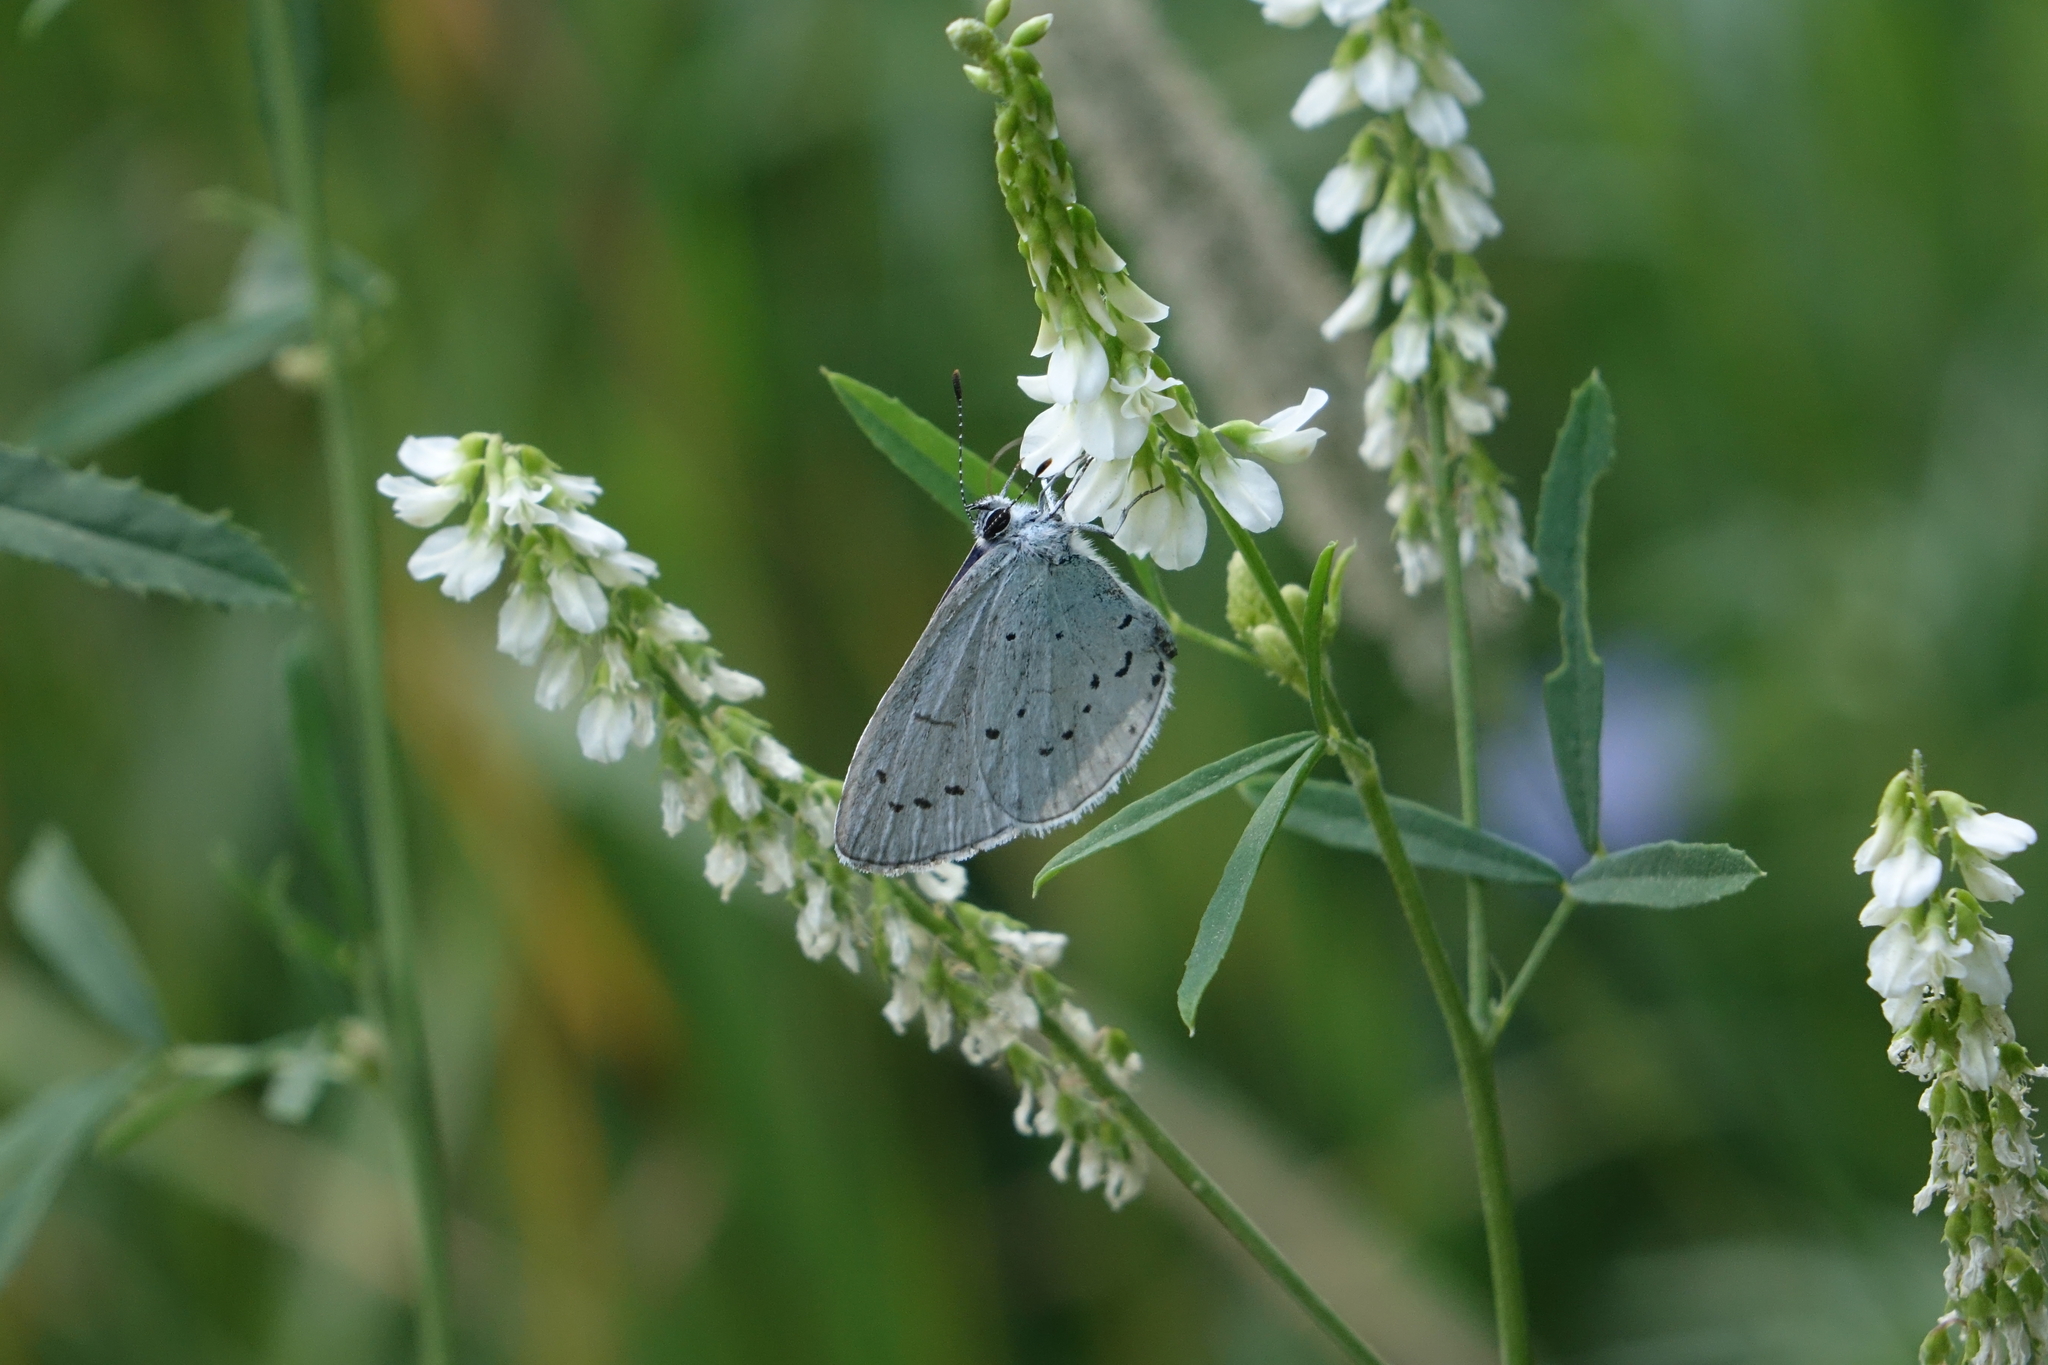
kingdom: Animalia
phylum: Arthropoda
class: Insecta
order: Lepidoptera
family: Lycaenidae
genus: Celastrina
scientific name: Celastrina argiolus
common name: Holly blue
